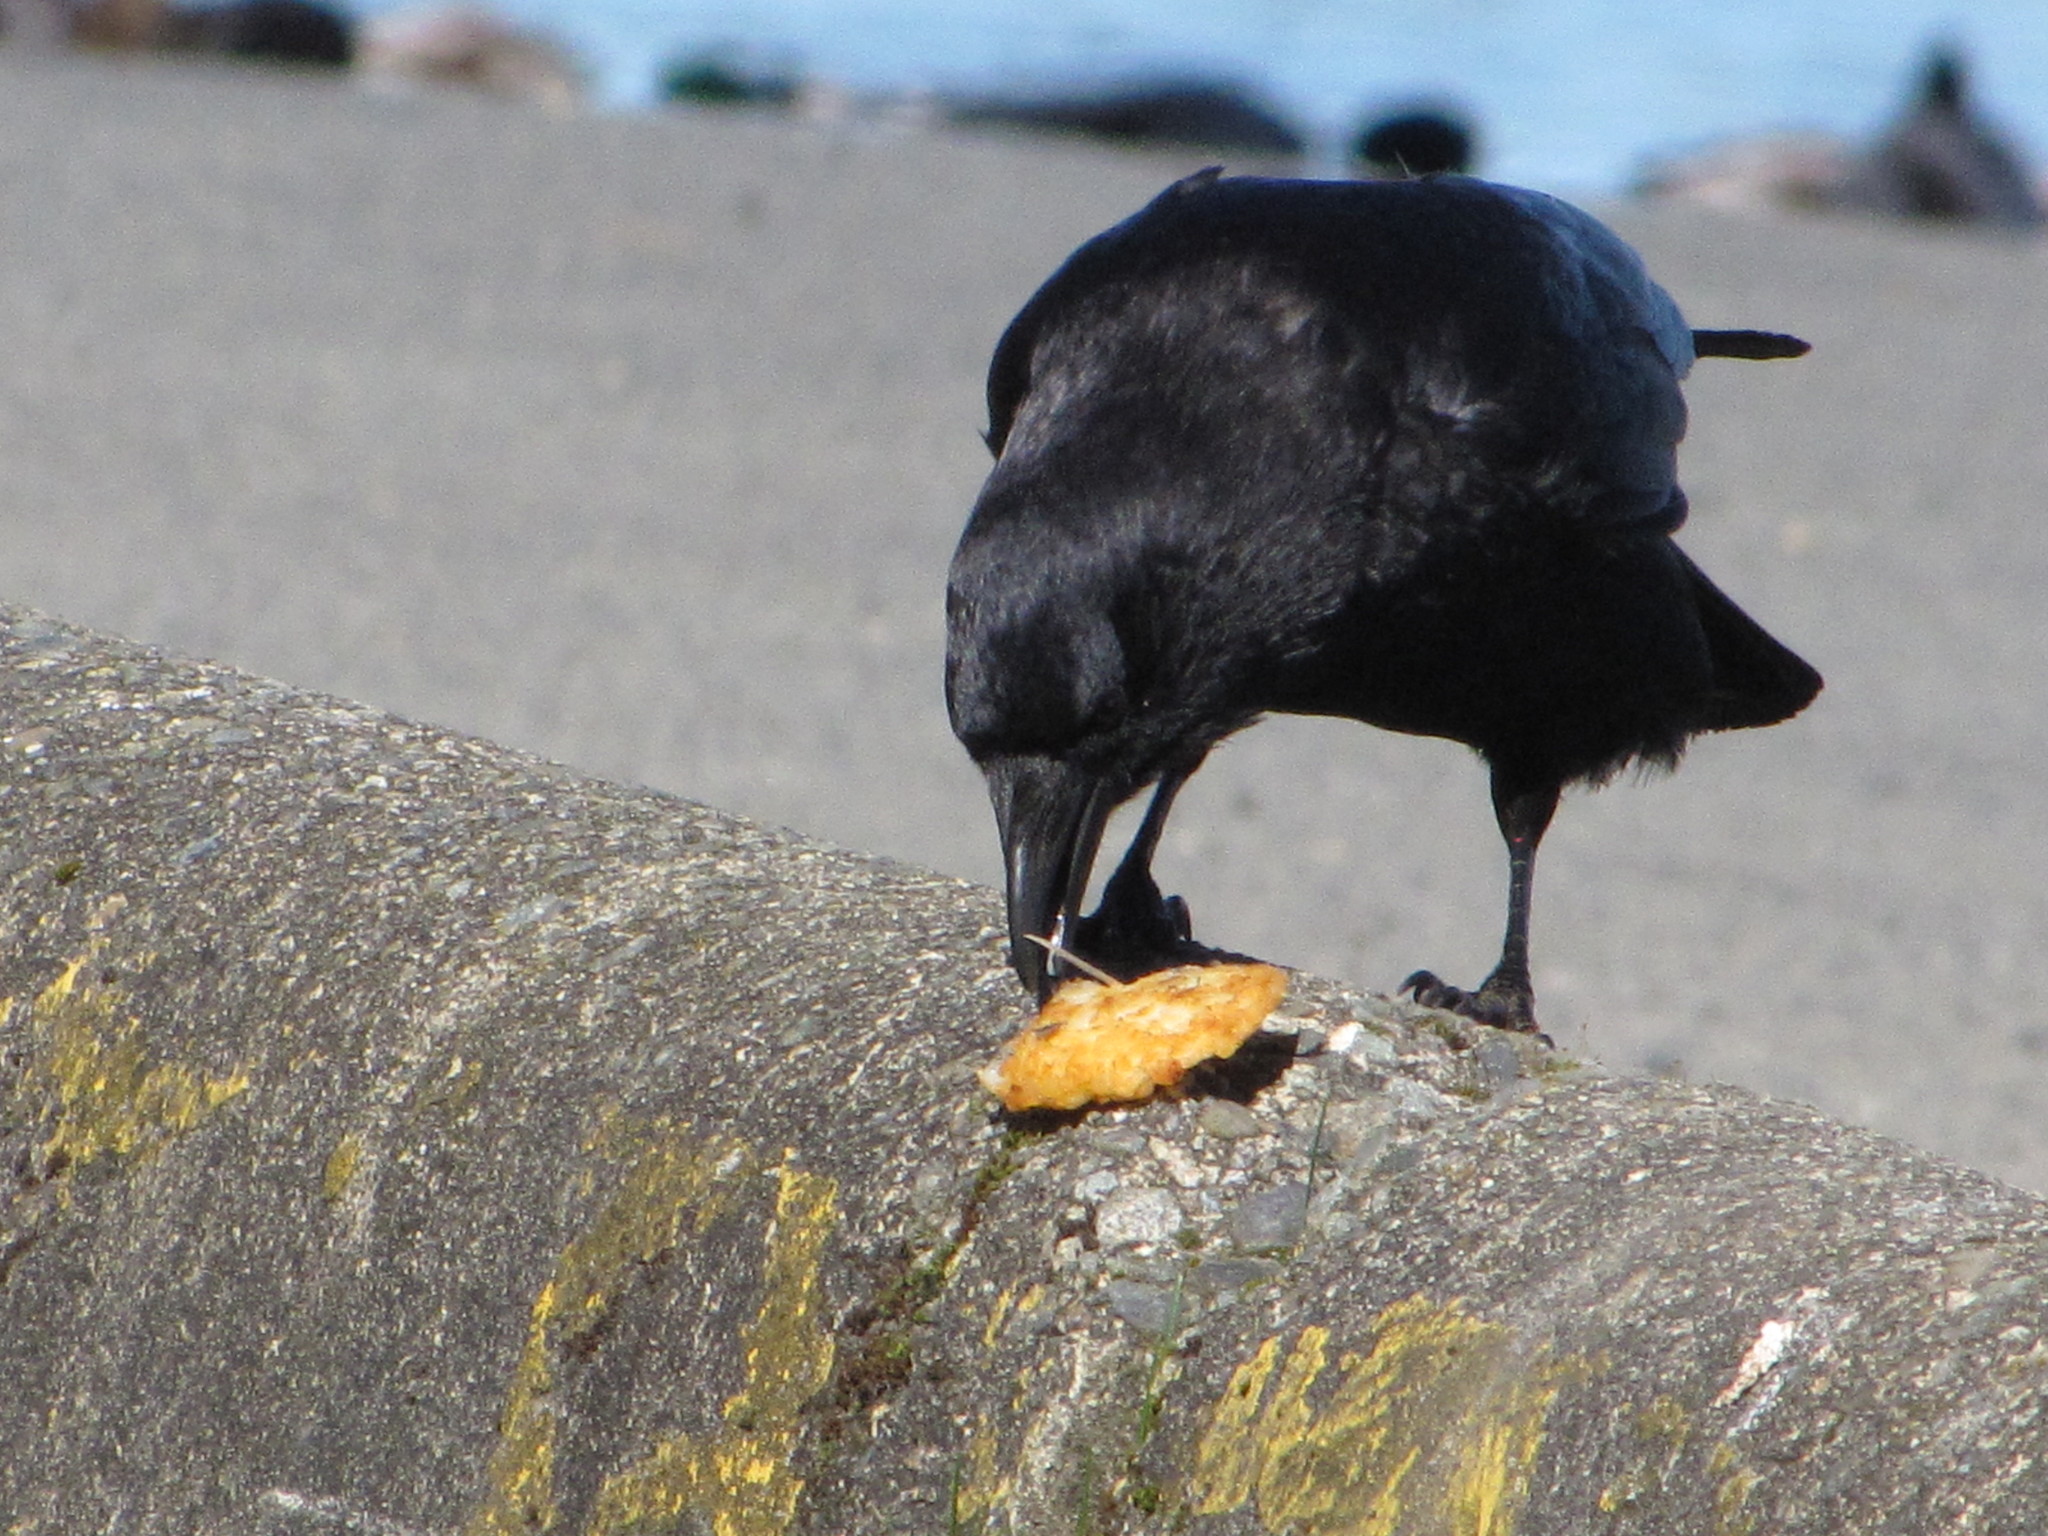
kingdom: Animalia
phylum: Chordata
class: Aves
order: Passeriformes
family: Corvidae
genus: Corvus
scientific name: Corvus corax
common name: Common raven
